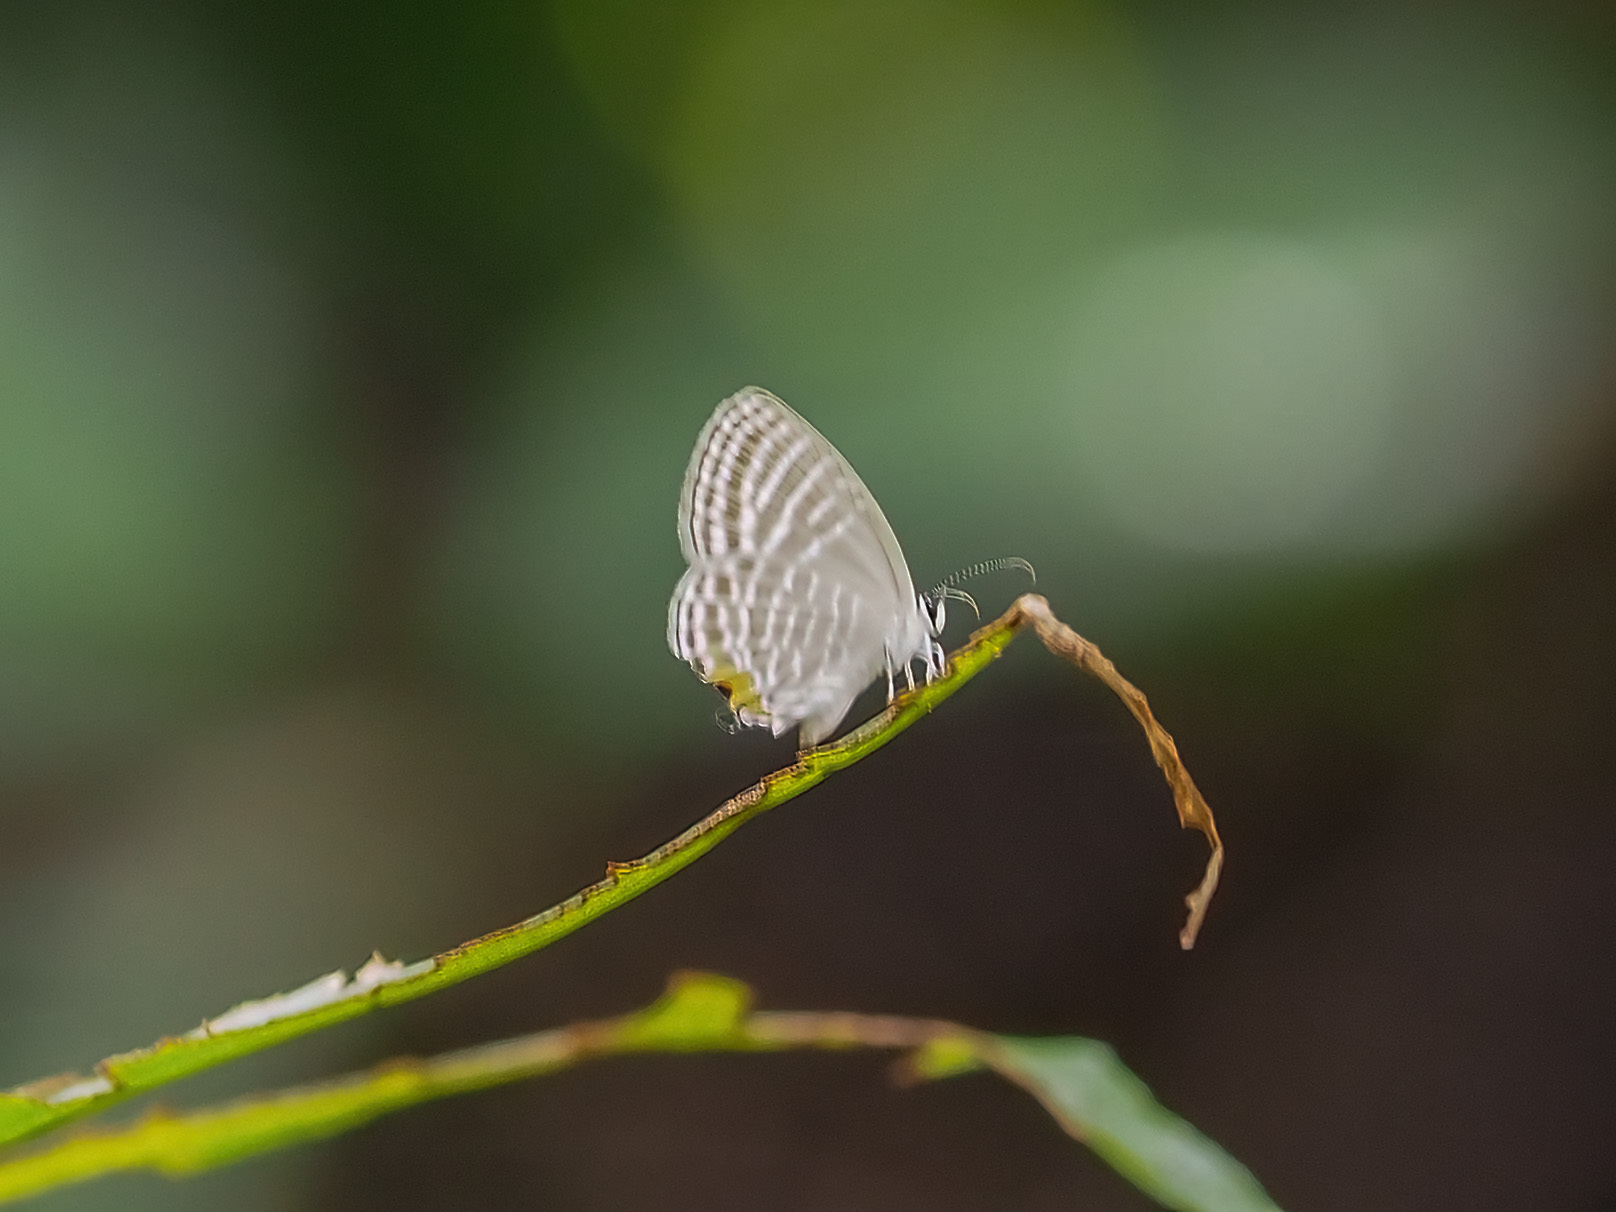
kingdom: Animalia
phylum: Arthropoda
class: Insecta
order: Lepidoptera
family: Lycaenidae
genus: Jamides
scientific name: Jamides celeno
